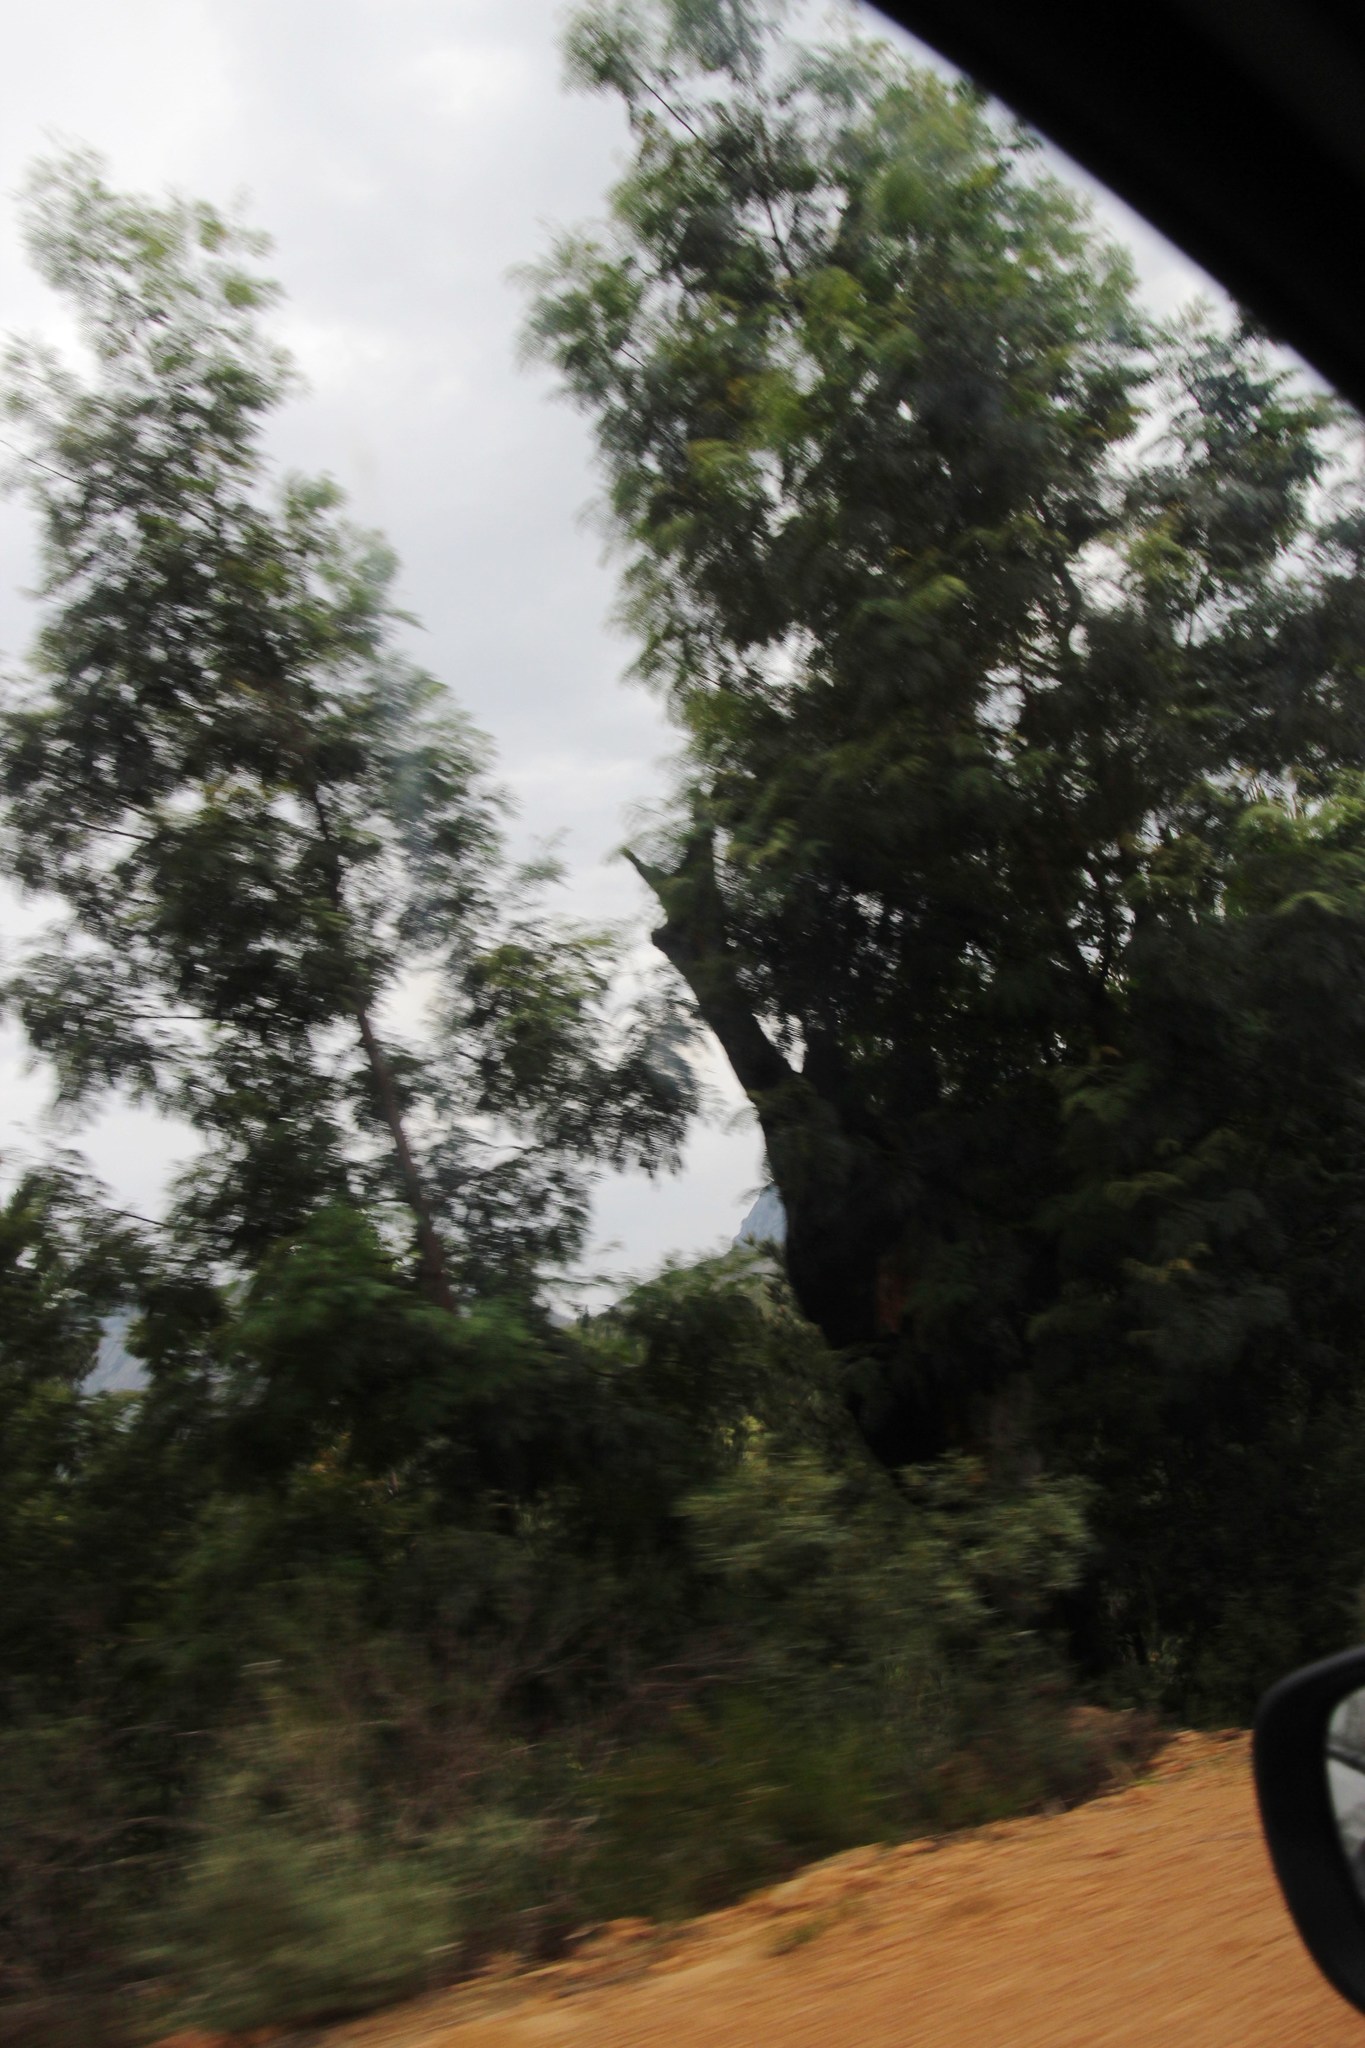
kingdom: Plantae
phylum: Tracheophyta
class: Magnoliopsida
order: Fabales
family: Fabaceae
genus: Acacia
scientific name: Acacia elata
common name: Cedar wattle
